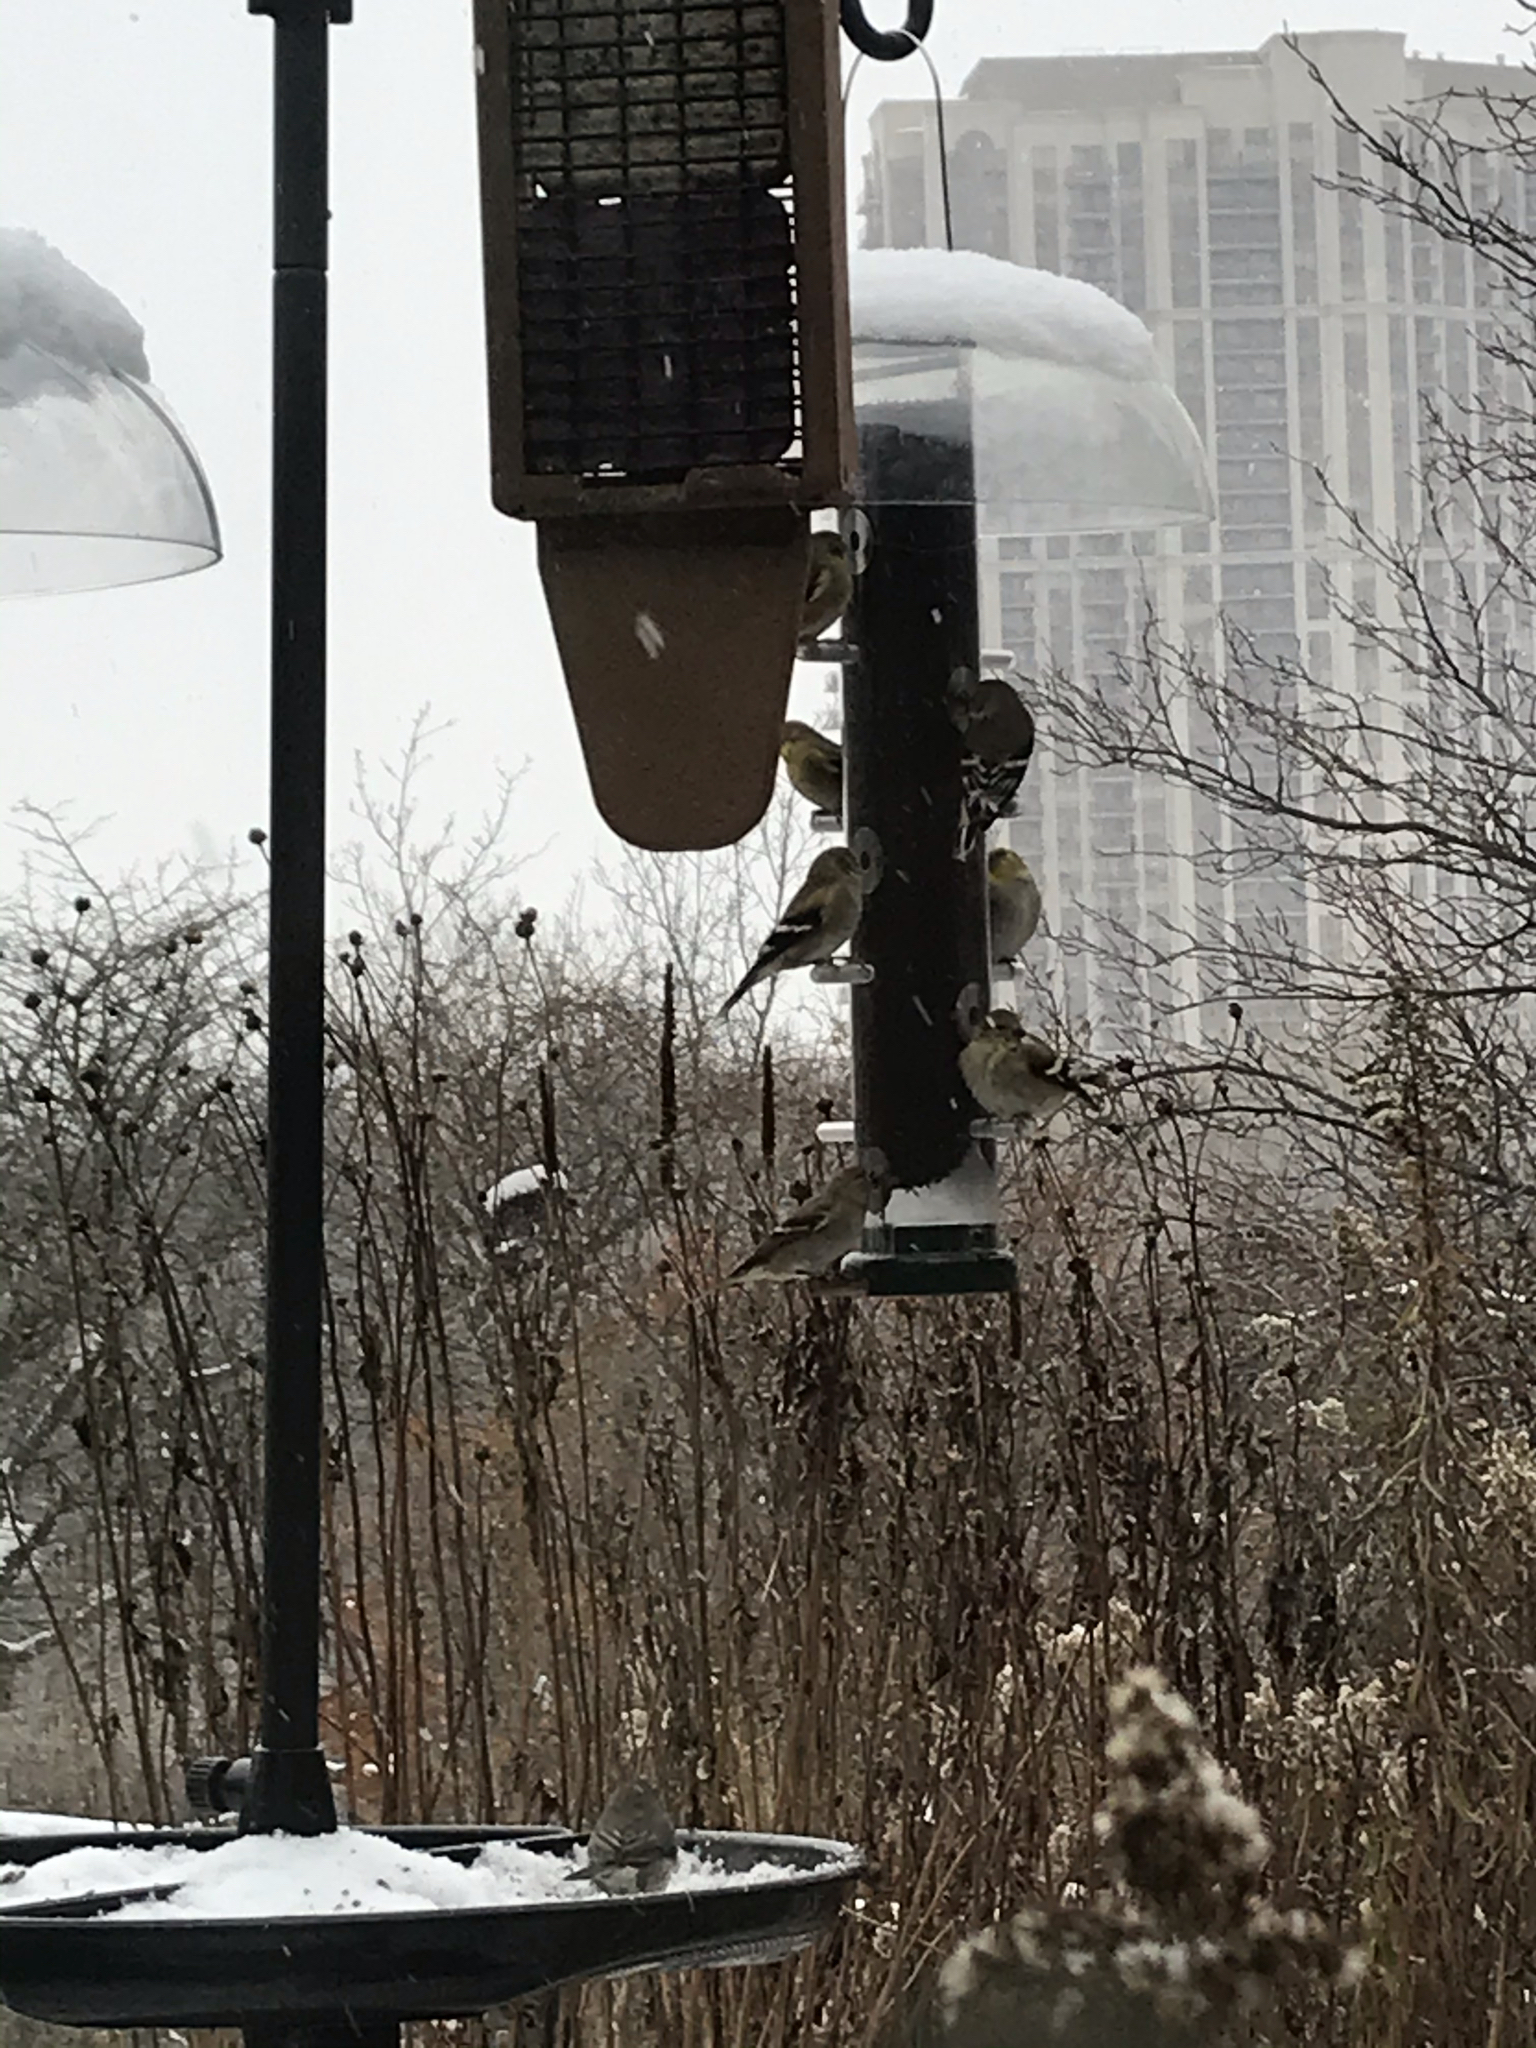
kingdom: Animalia
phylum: Chordata
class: Aves
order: Passeriformes
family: Fringillidae
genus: Spinus
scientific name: Spinus tristis
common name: American goldfinch
